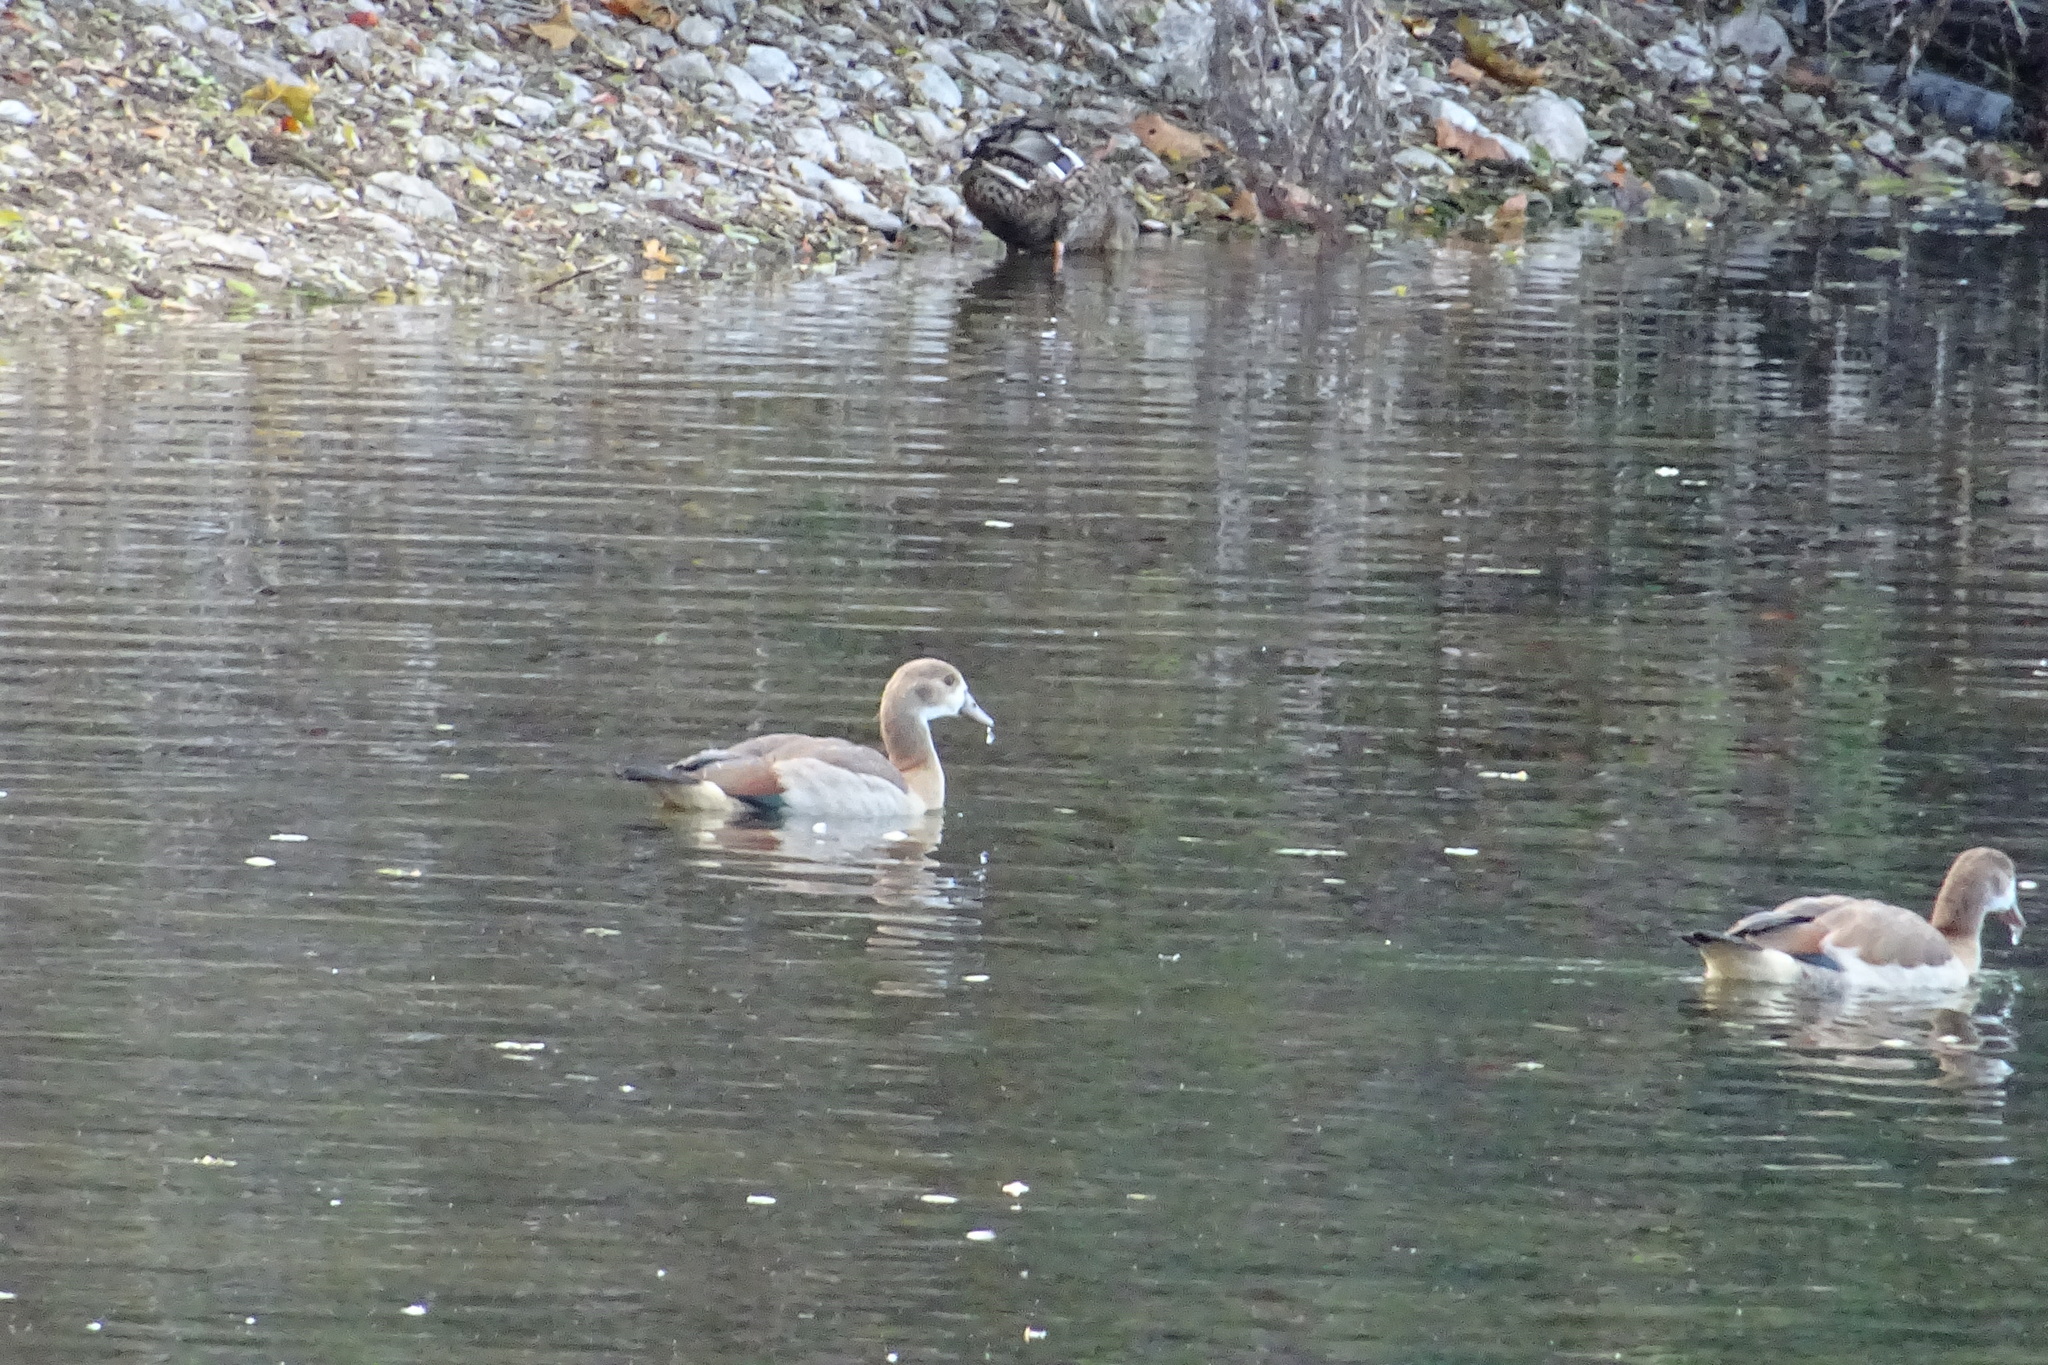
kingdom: Animalia
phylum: Chordata
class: Aves
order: Anseriformes
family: Anatidae
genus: Alopochen
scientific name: Alopochen aegyptiaca
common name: Egyptian goose
